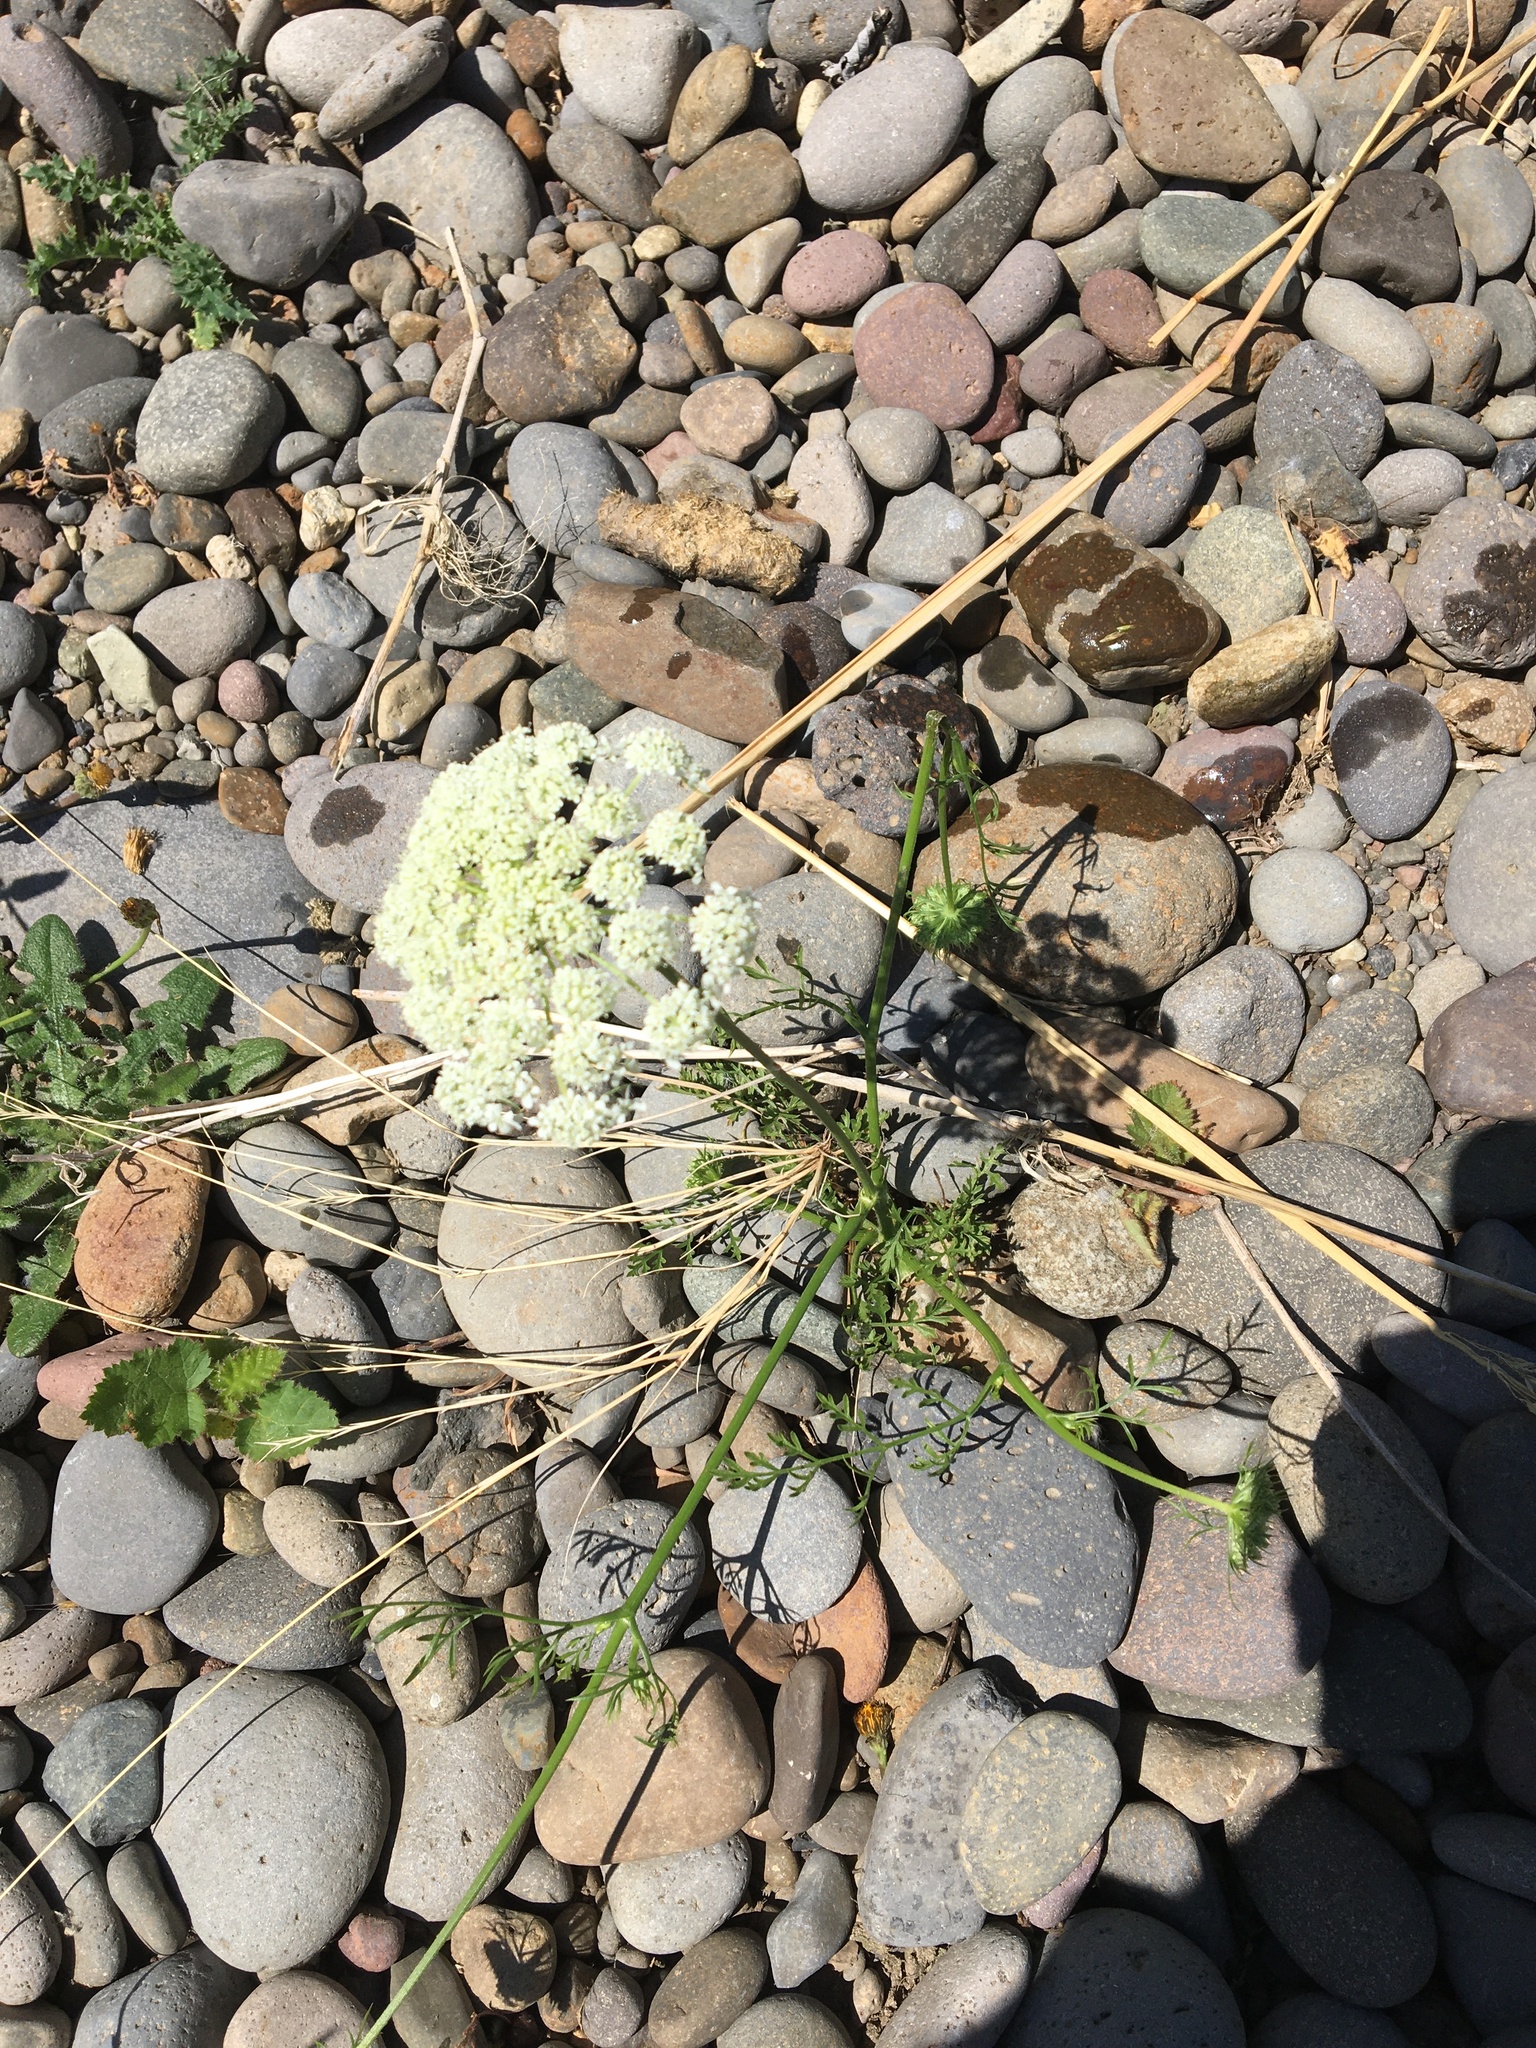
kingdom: Plantae
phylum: Tracheophyta
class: Magnoliopsida
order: Apiales
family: Apiaceae
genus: Daucus
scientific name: Daucus carota
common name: Wild carrot
